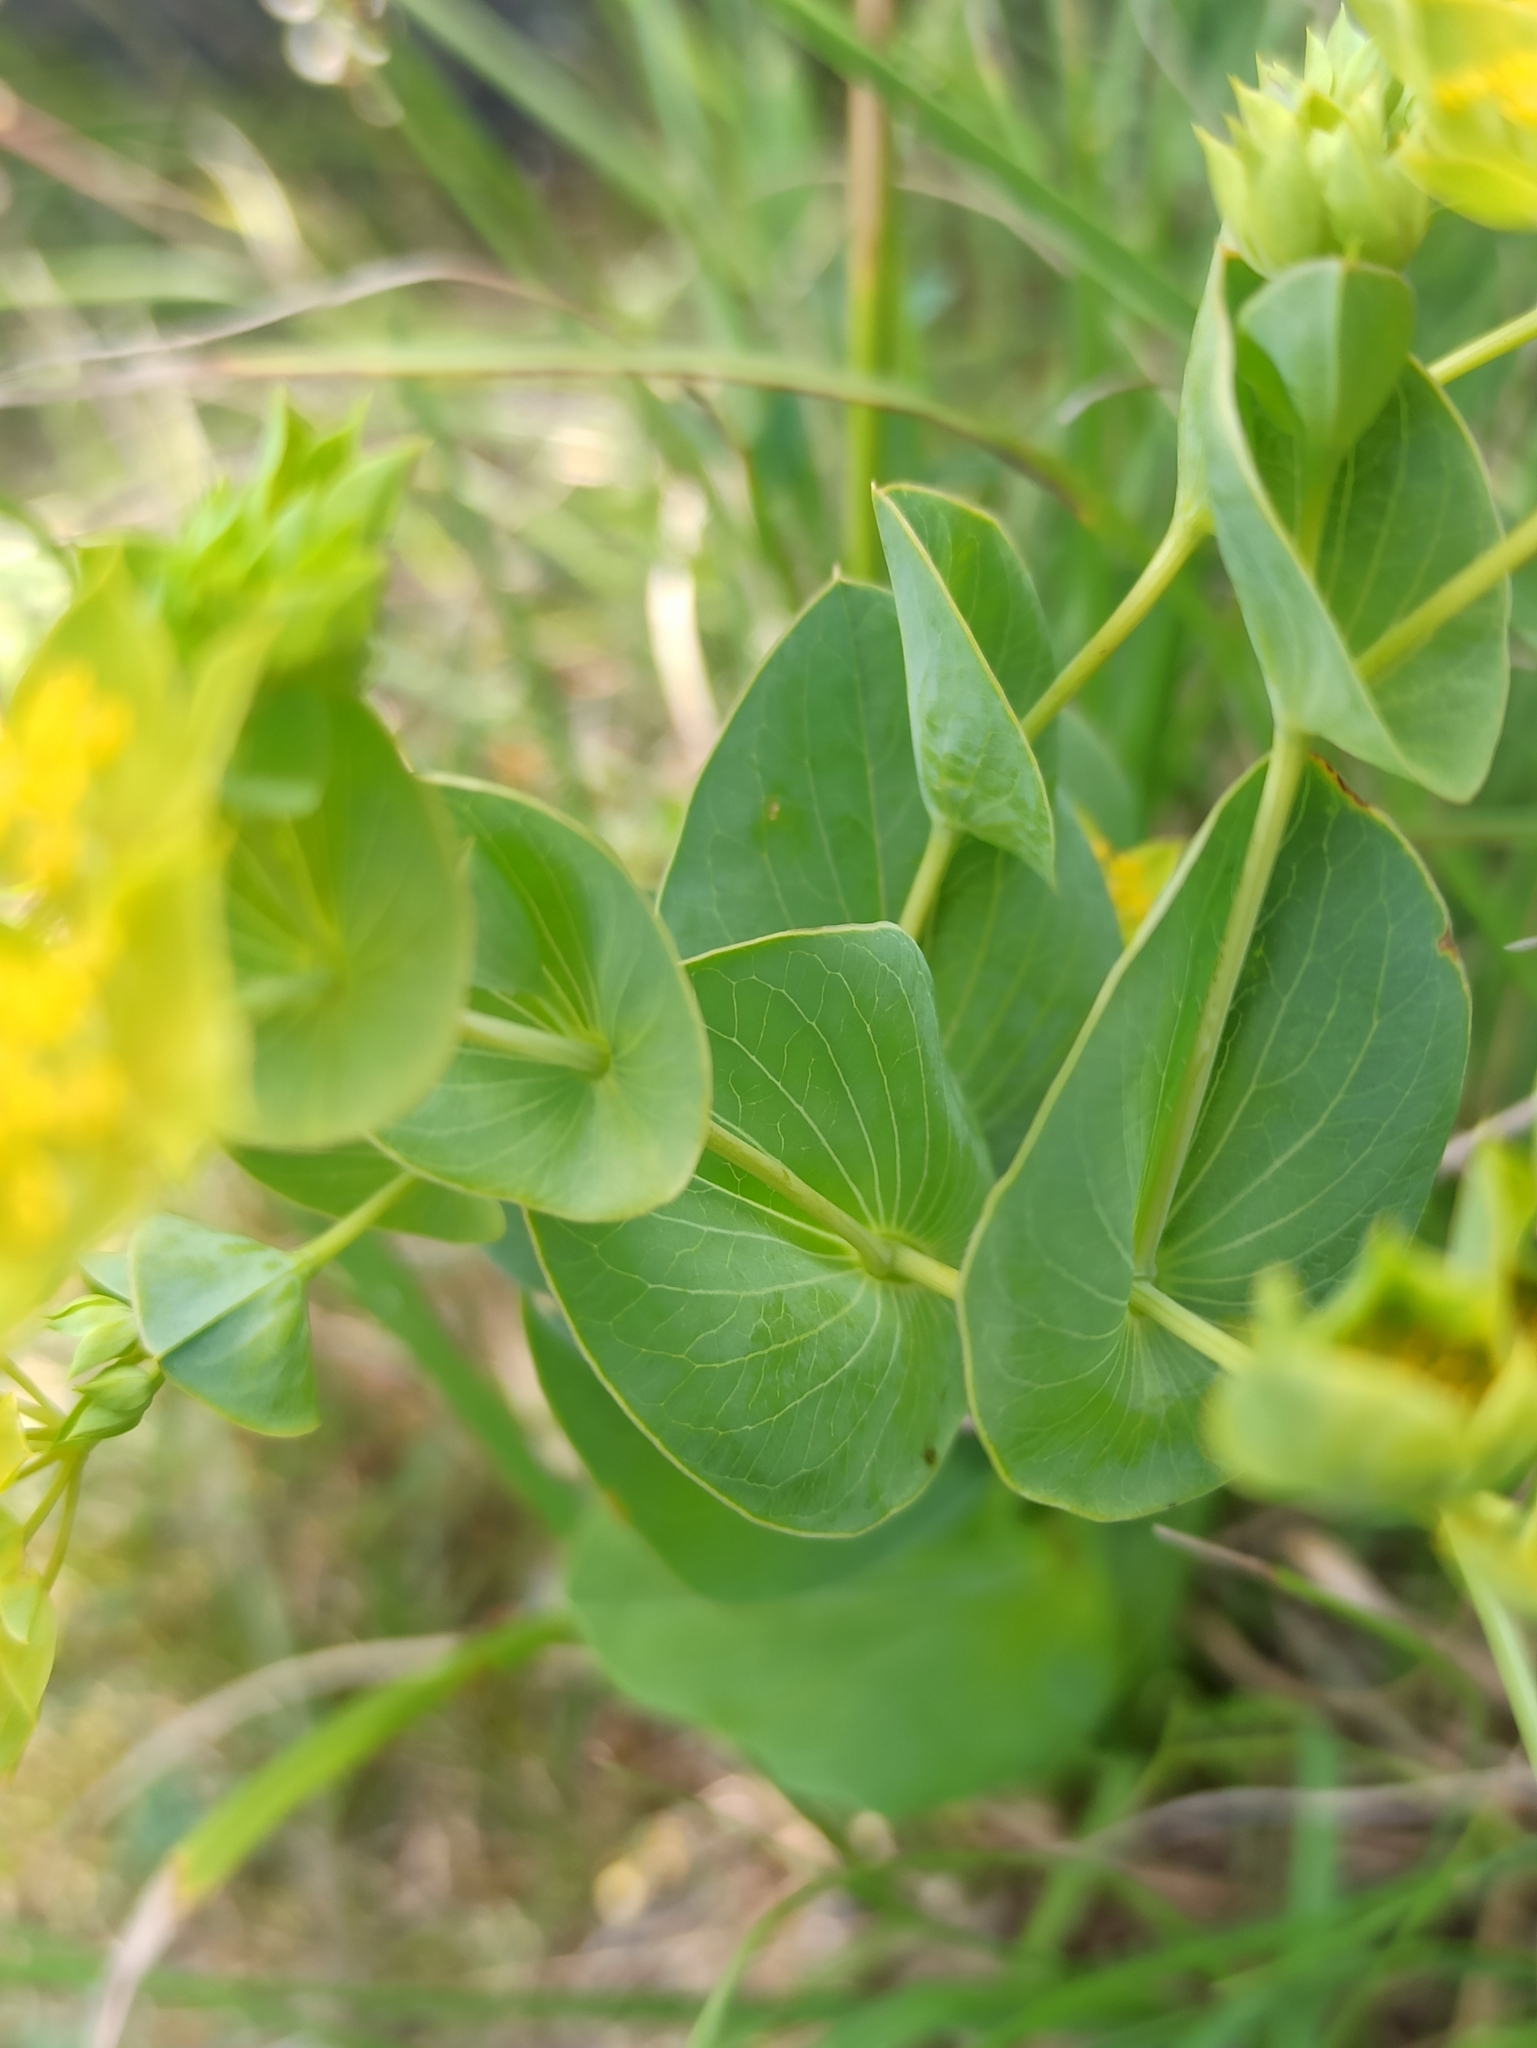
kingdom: Plantae
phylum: Tracheophyta
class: Magnoliopsida
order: Apiales
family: Apiaceae
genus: Bupleurum
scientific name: Bupleurum rotundifolium
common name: Thorow-wax
